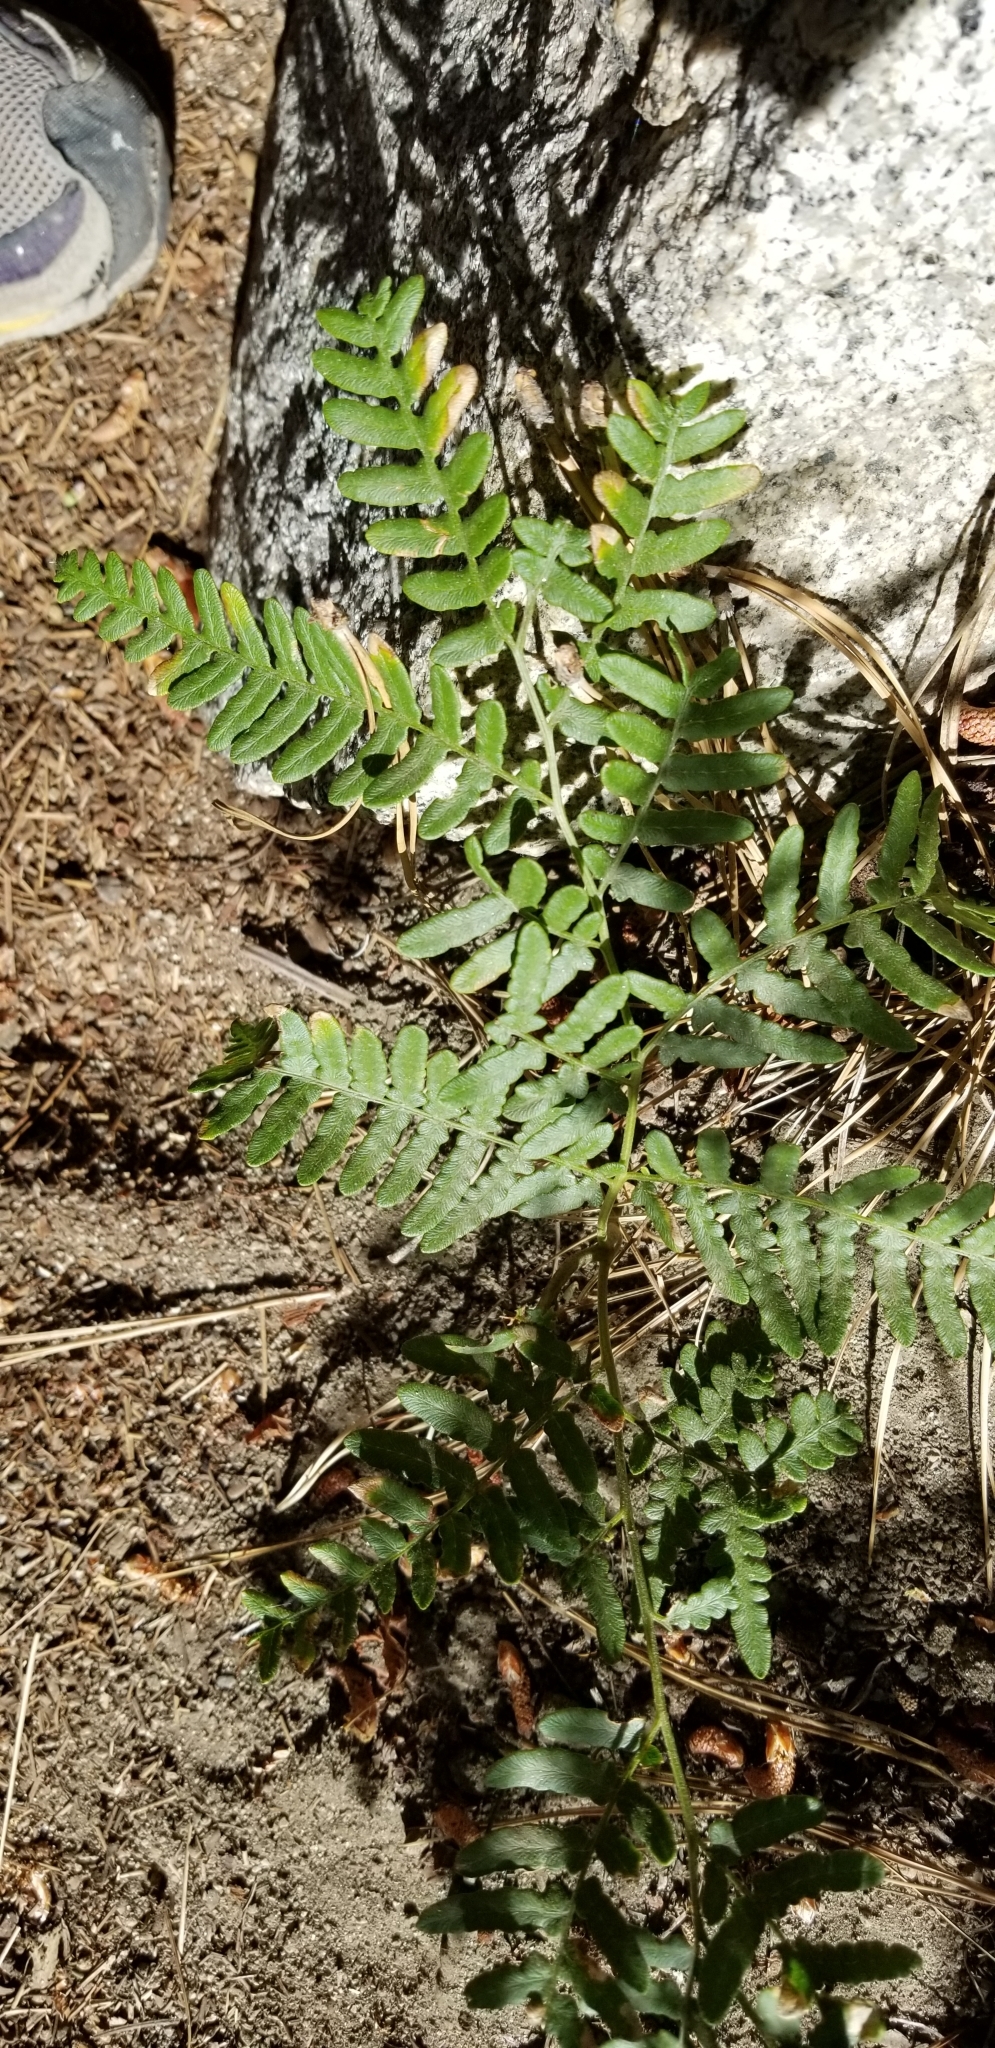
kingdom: Plantae
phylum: Tracheophyta
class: Polypodiopsida
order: Polypodiales
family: Dennstaedtiaceae
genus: Pteridium
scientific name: Pteridium aquilinum
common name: Bracken
